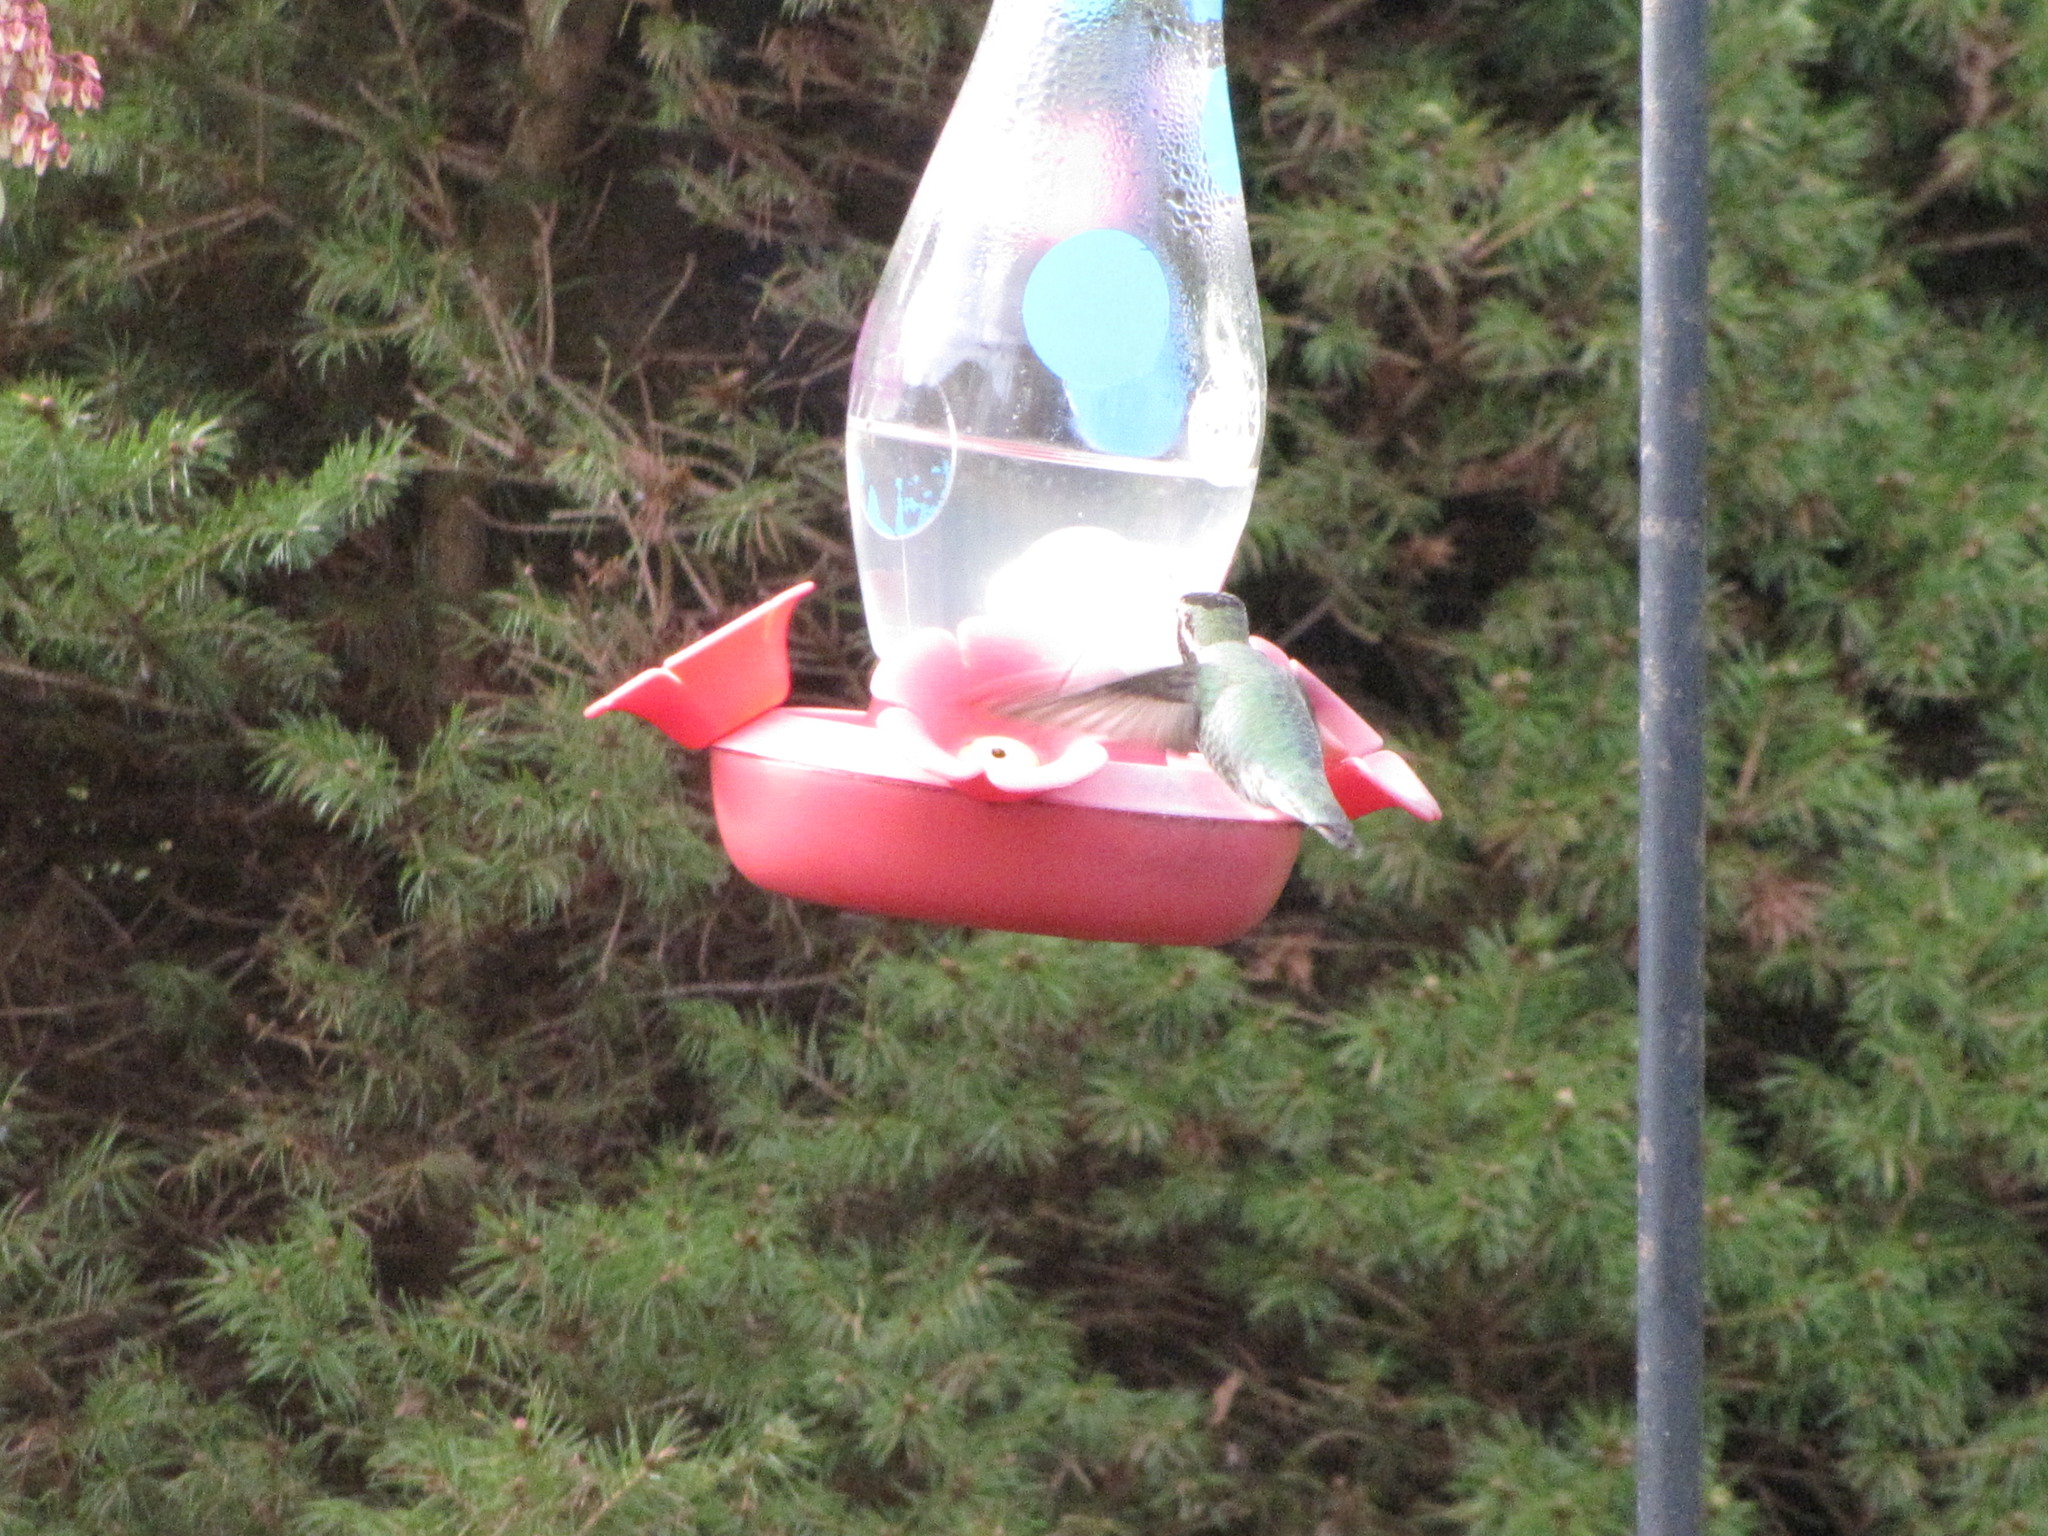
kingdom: Animalia
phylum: Chordata
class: Aves
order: Apodiformes
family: Trochilidae
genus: Calypte
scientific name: Calypte anna
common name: Anna's hummingbird
